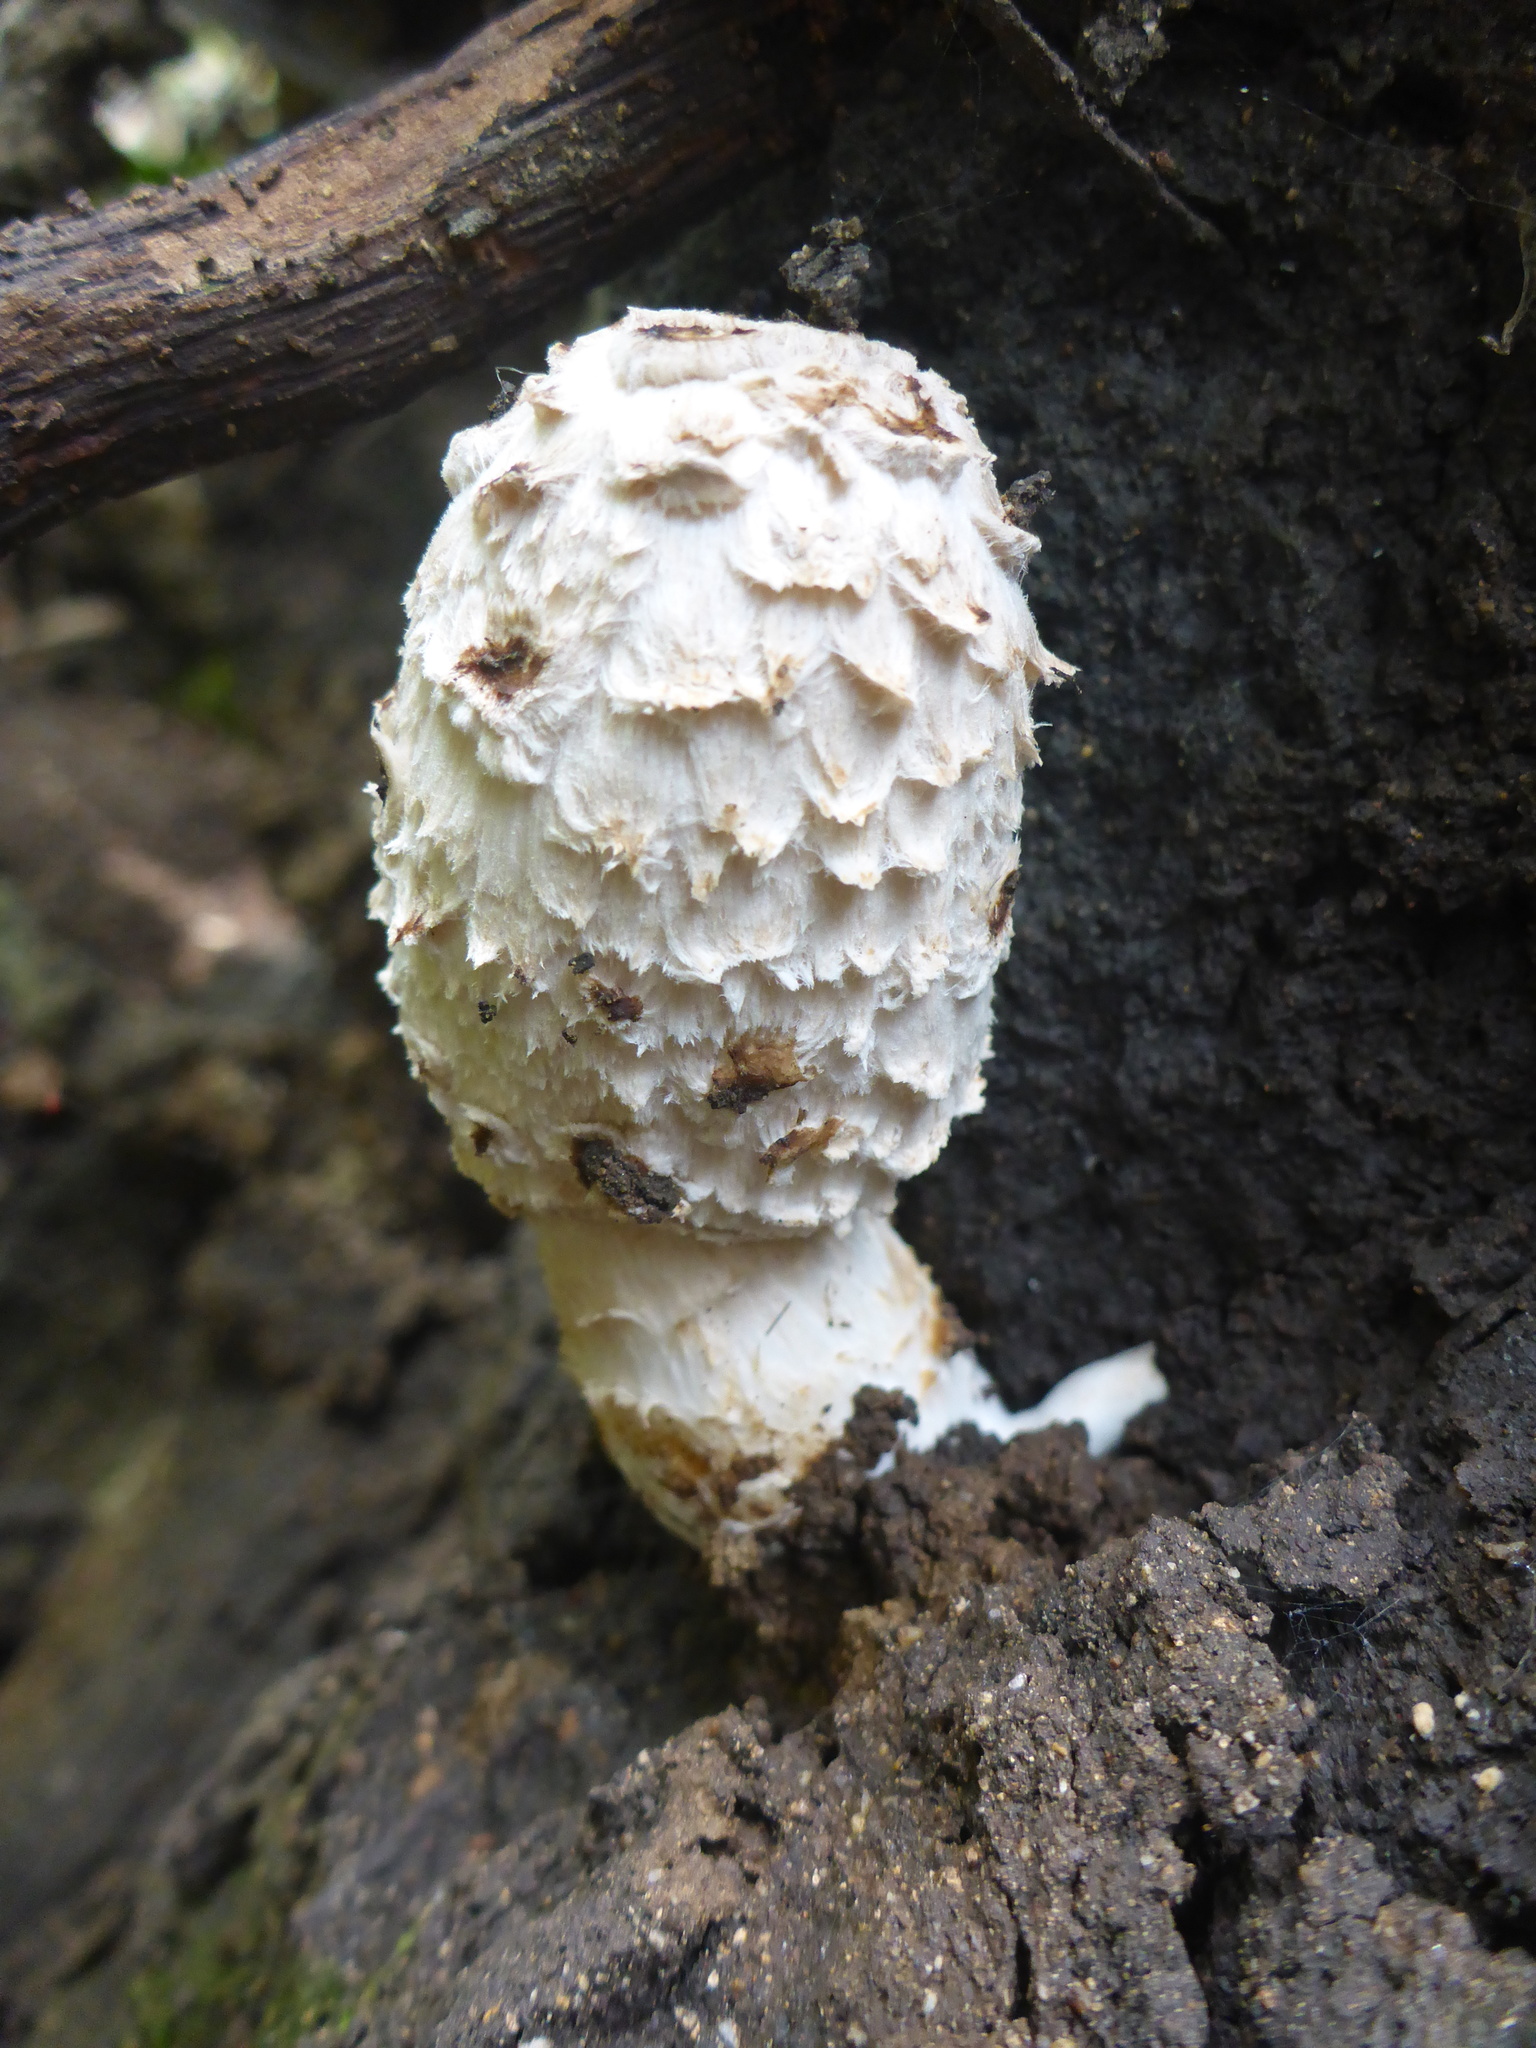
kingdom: Fungi
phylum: Basidiomycota
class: Agaricomycetes
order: Agaricales
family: Agaricaceae
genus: Coprinus
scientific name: Coprinus comatus
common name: Lawyer's wig
